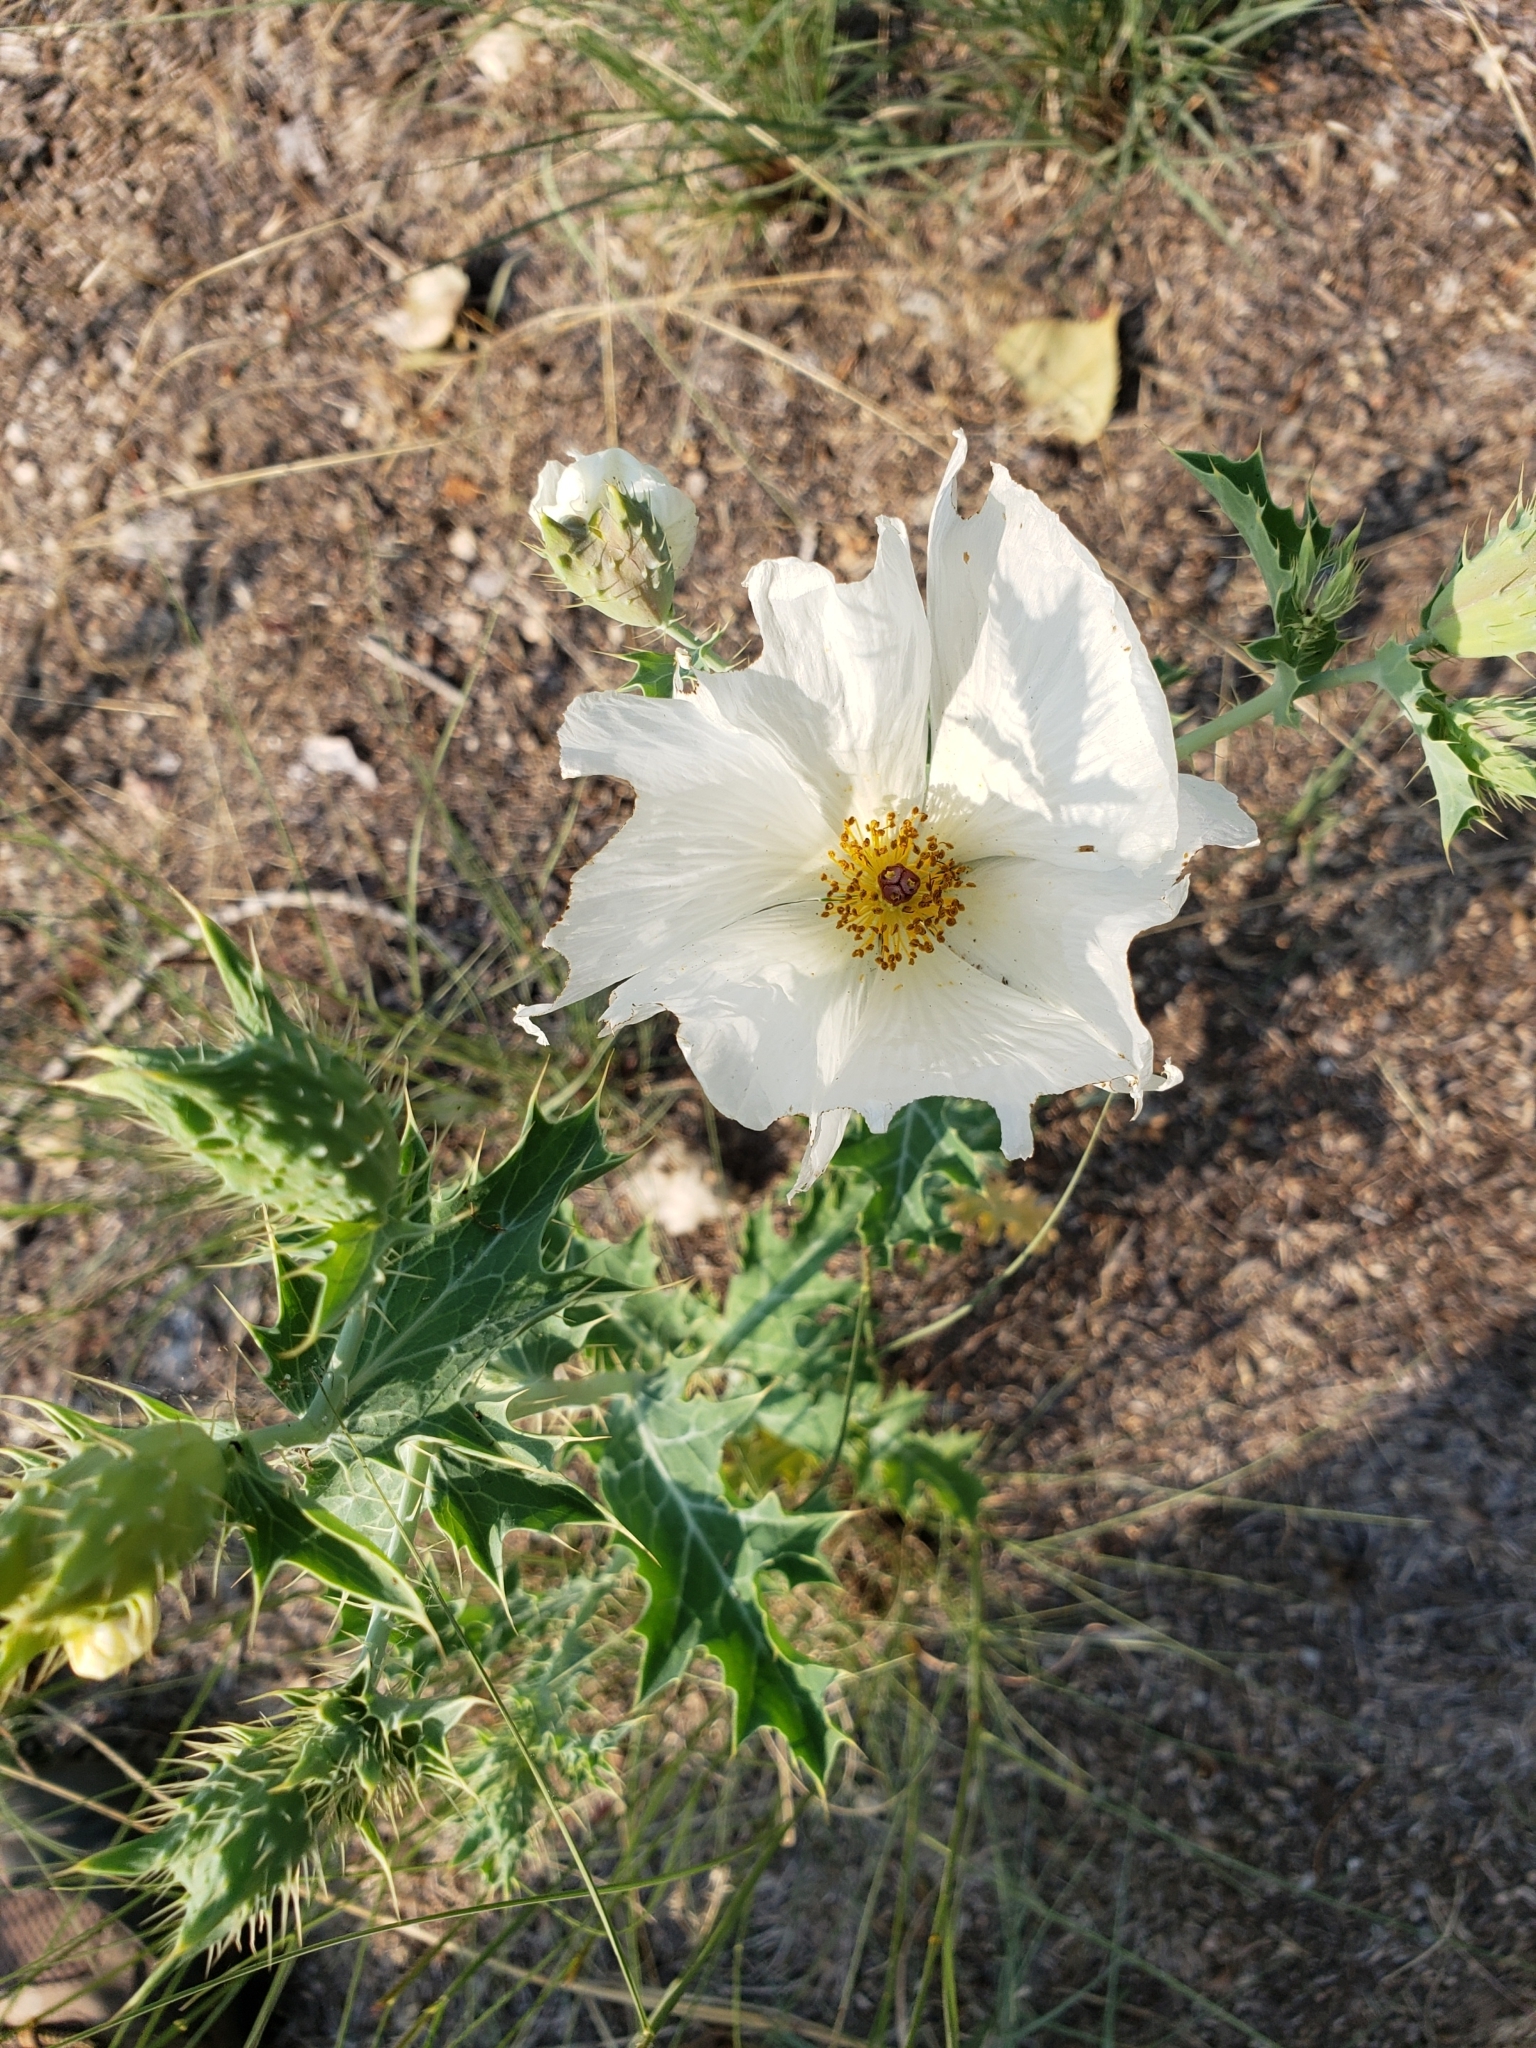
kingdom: Plantae
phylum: Tracheophyta
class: Magnoliopsida
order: Ranunculales
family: Papaveraceae
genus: Argemone
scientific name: Argemone polyanthemos
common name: Plains prickly-poppy
